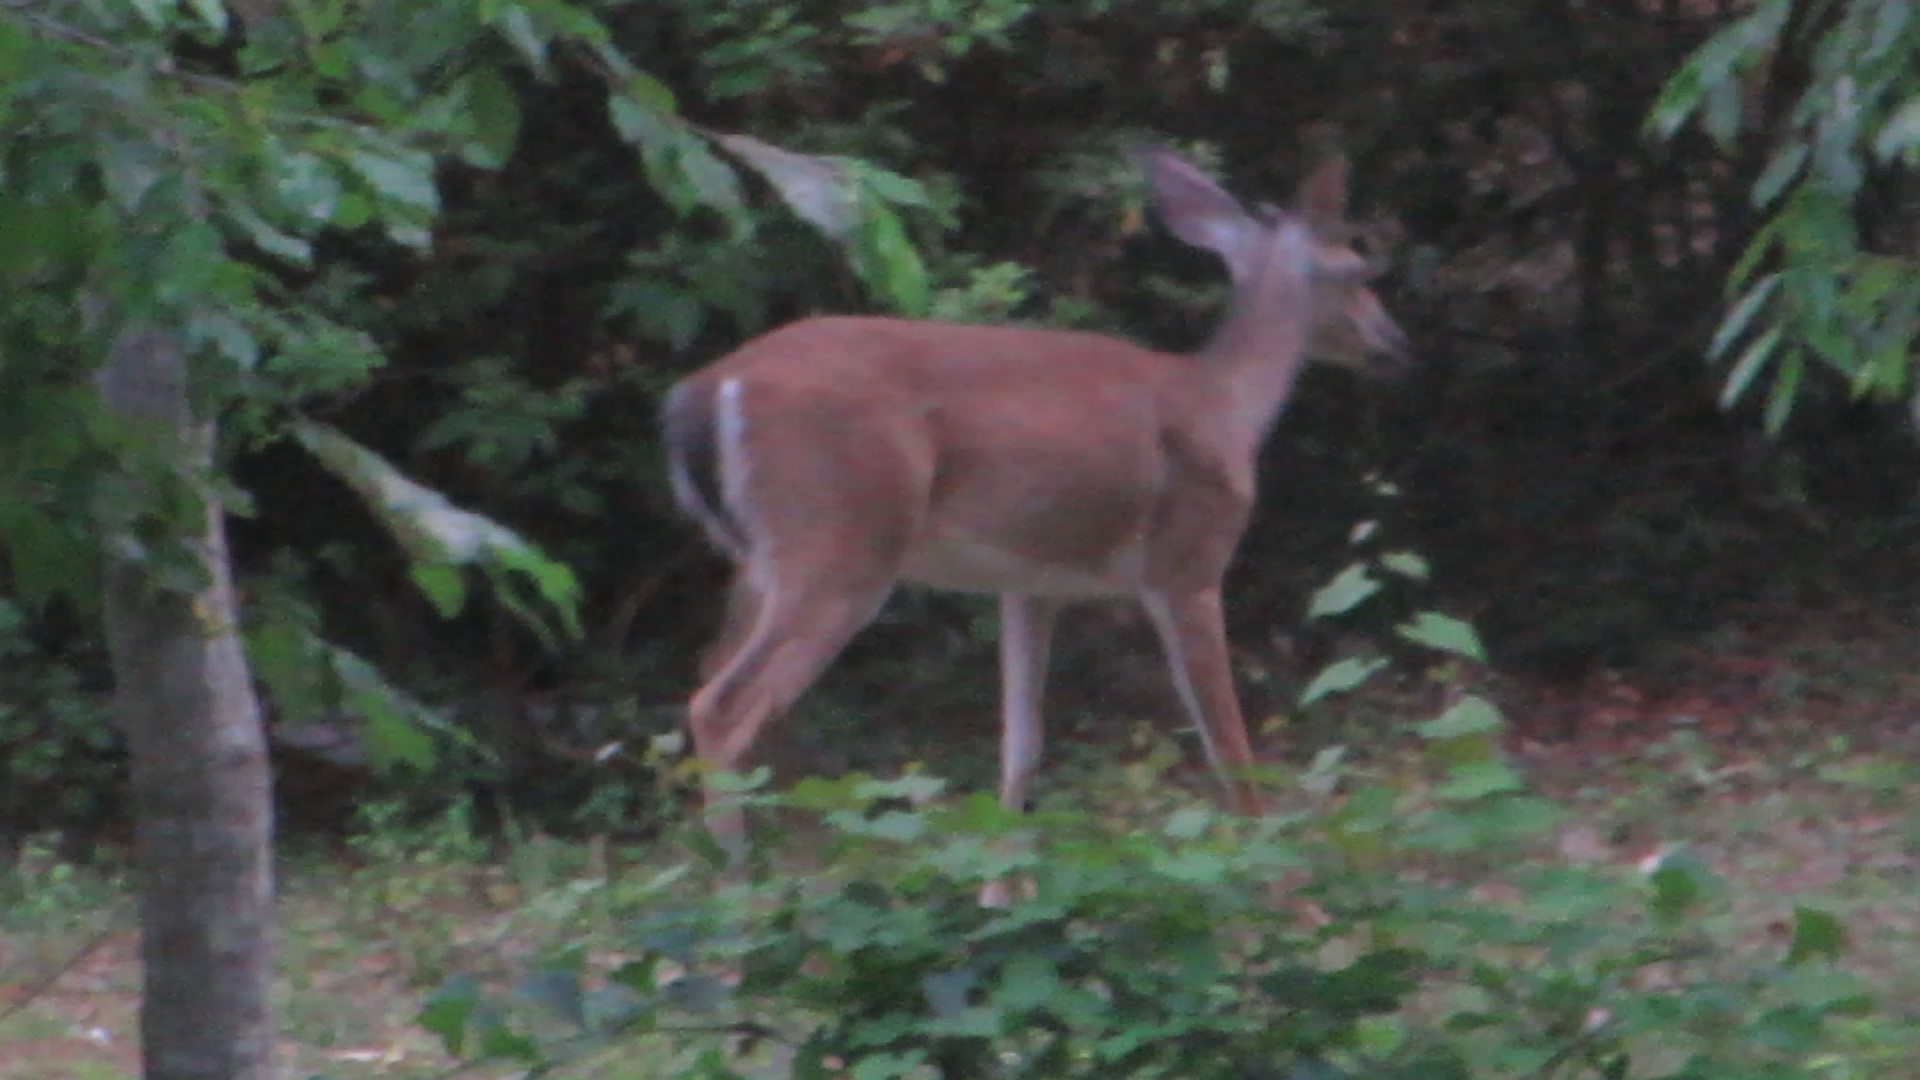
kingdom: Animalia
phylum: Chordata
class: Mammalia
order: Artiodactyla
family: Cervidae
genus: Odocoileus
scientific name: Odocoileus virginianus
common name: White-tailed deer
